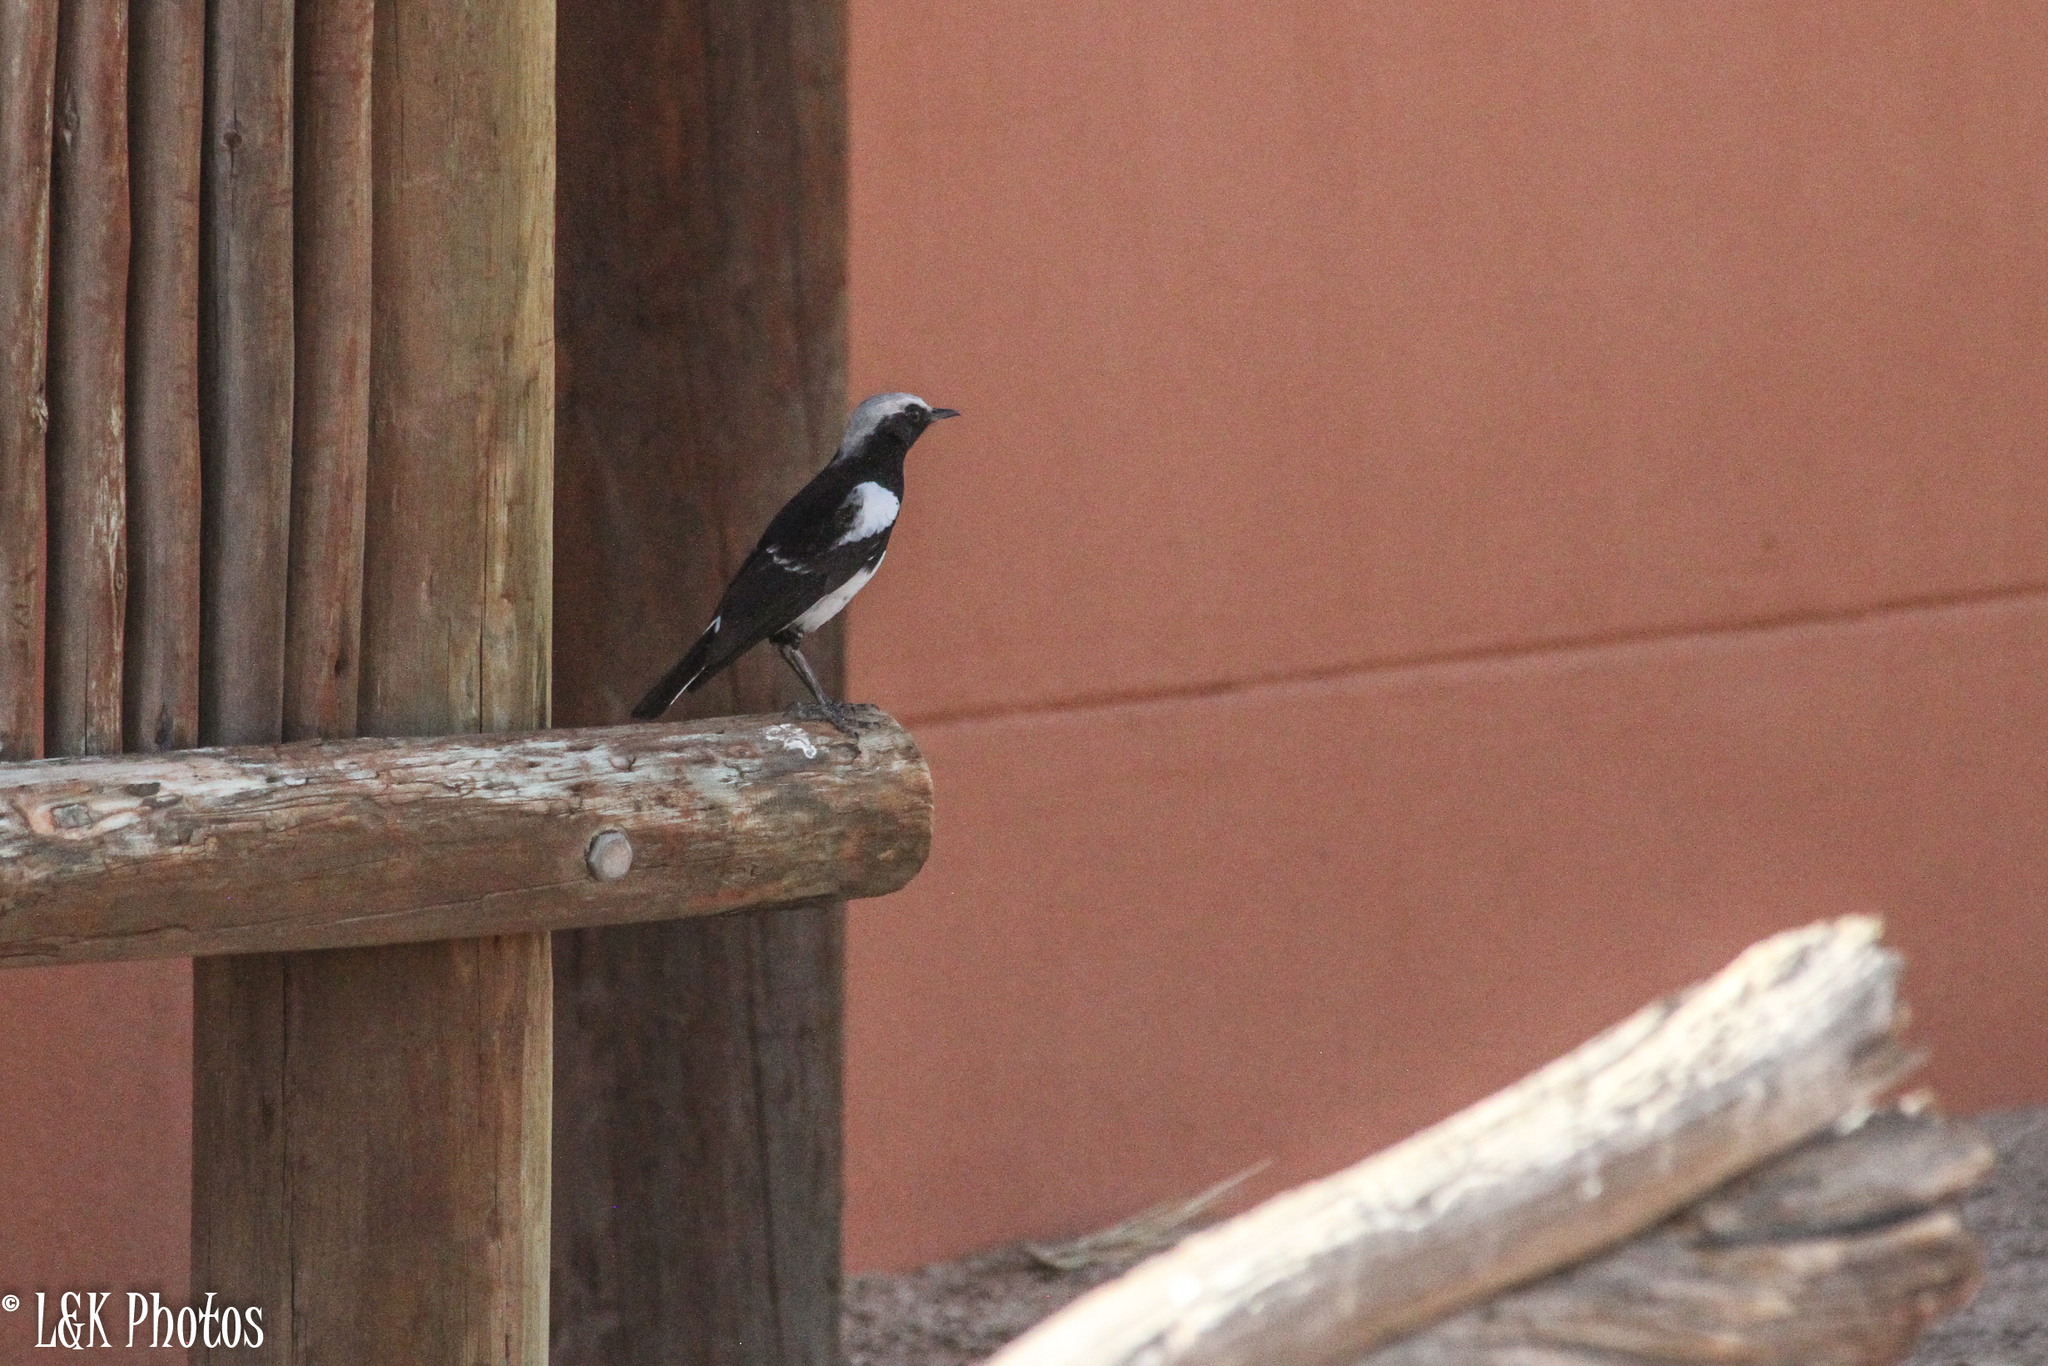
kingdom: Animalia
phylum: Chordata
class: Aves
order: Passeriformes
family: Muscicapidae
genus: Oenanthe
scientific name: Oenanthe monticola
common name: Mountain wheatear
